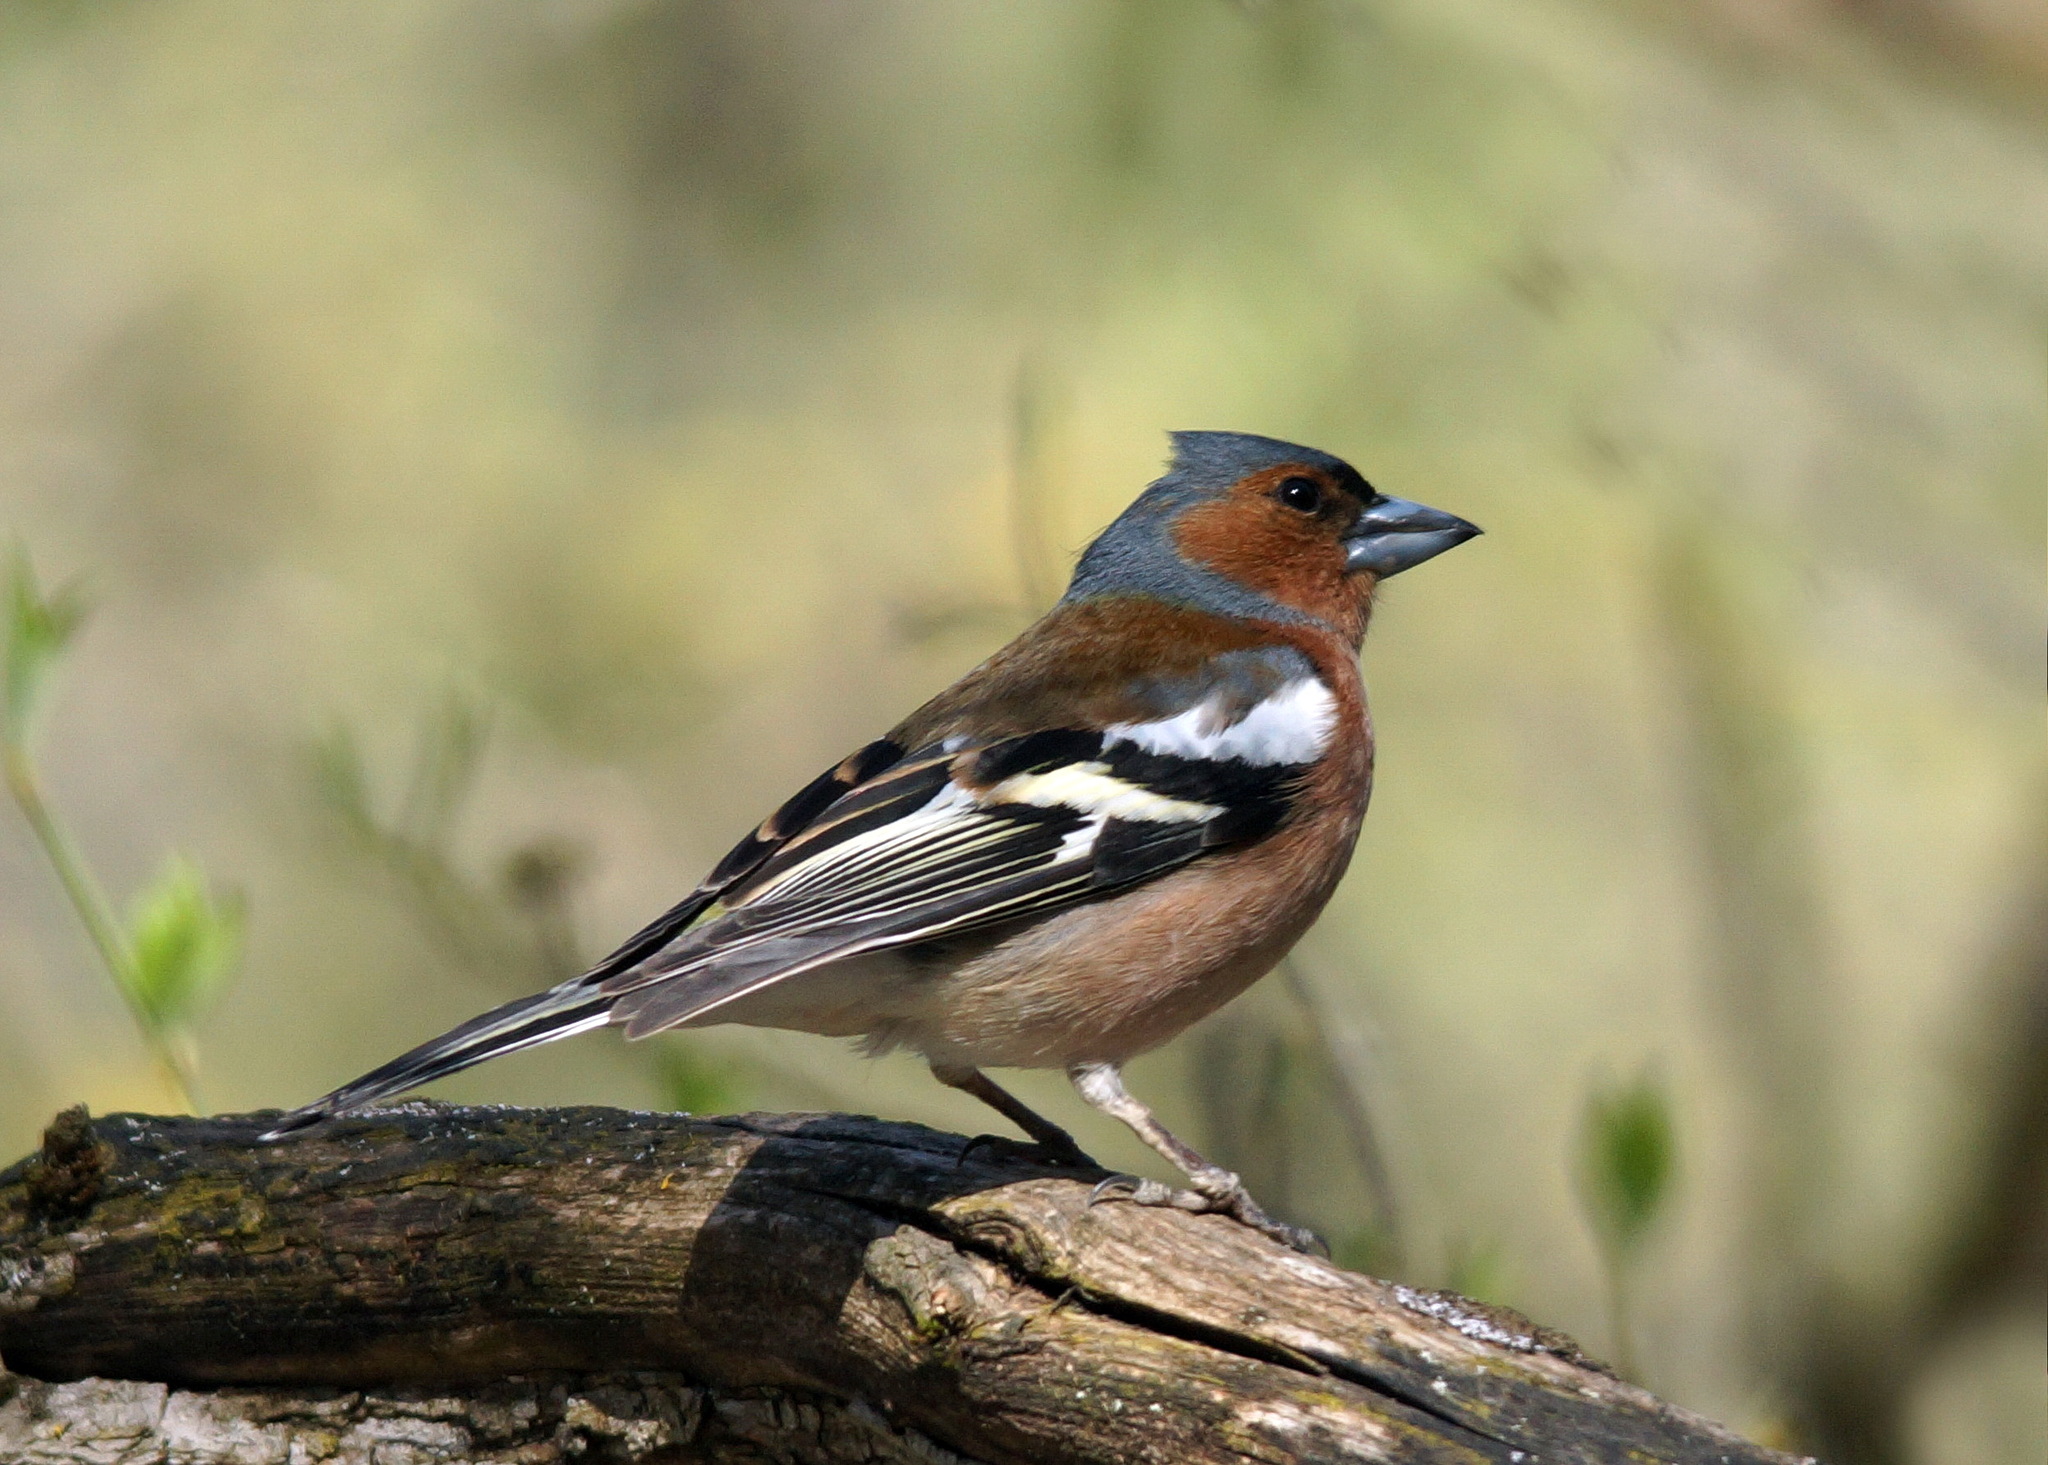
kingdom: Animalia
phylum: Chordata
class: Aves
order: Passeriformes
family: Fringillidae
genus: Fringilla
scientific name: Fringilla coelebs
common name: Common chaffinch
